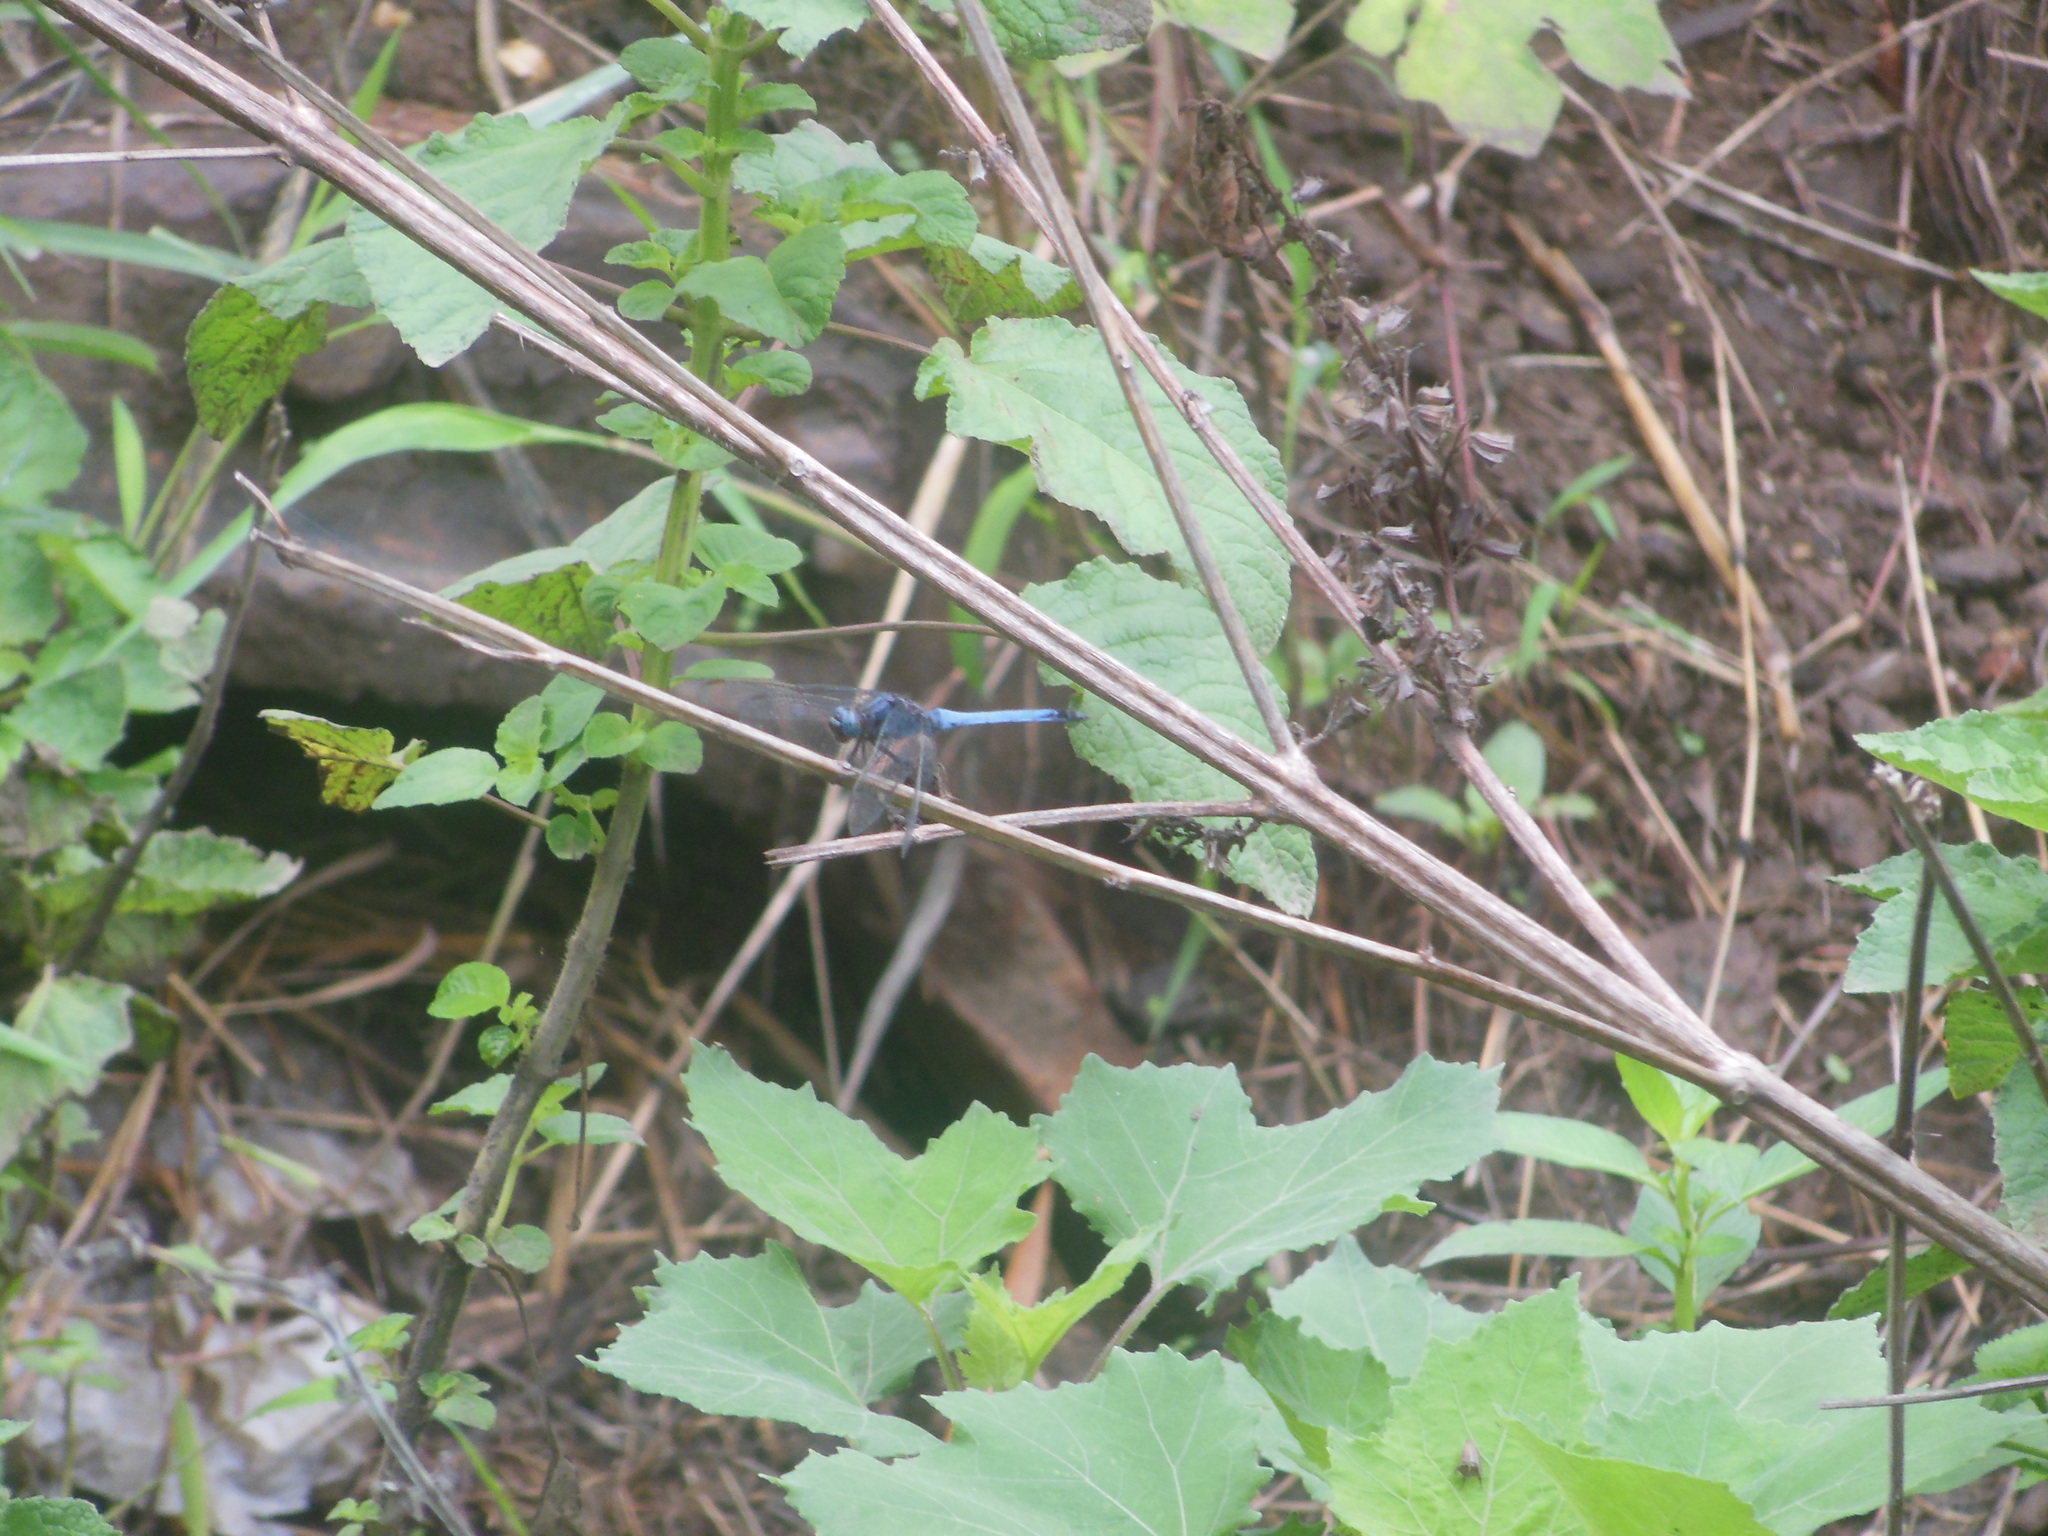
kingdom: Animalia
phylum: Arthropoda
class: Insecta
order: Odonata
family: Libellulidae
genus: Orthetrum
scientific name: Orthetrum glaucum
